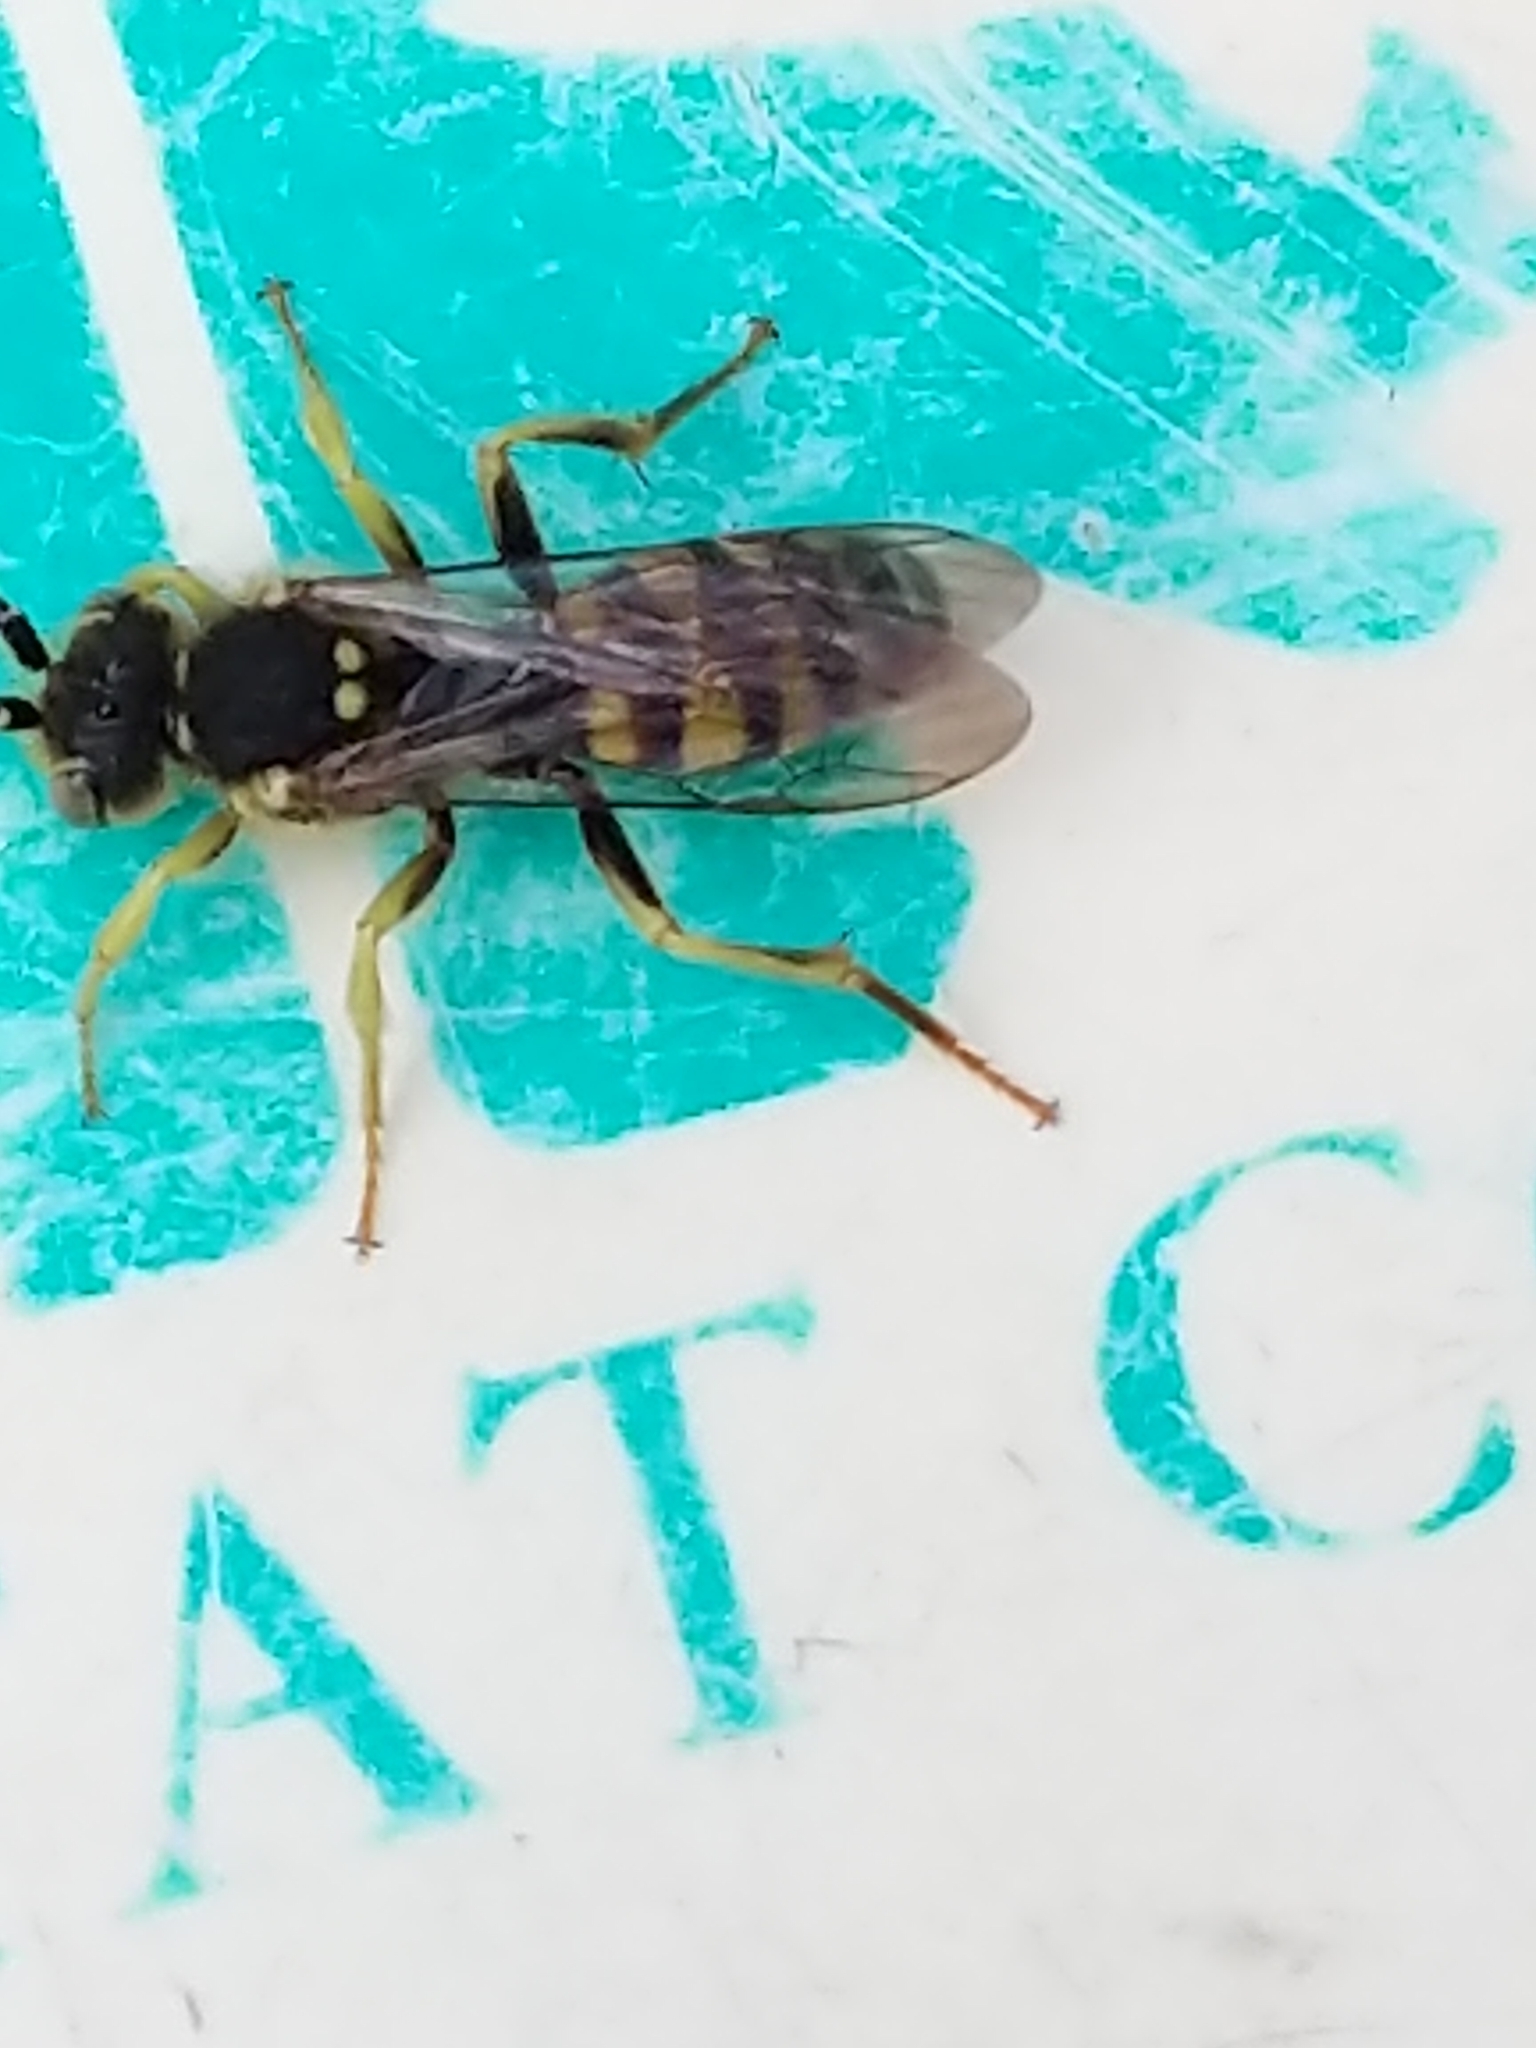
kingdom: Animalia
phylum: Arthropoda
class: Insecta
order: Hymenoptera
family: Apidae
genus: Nomada
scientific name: Nomada
